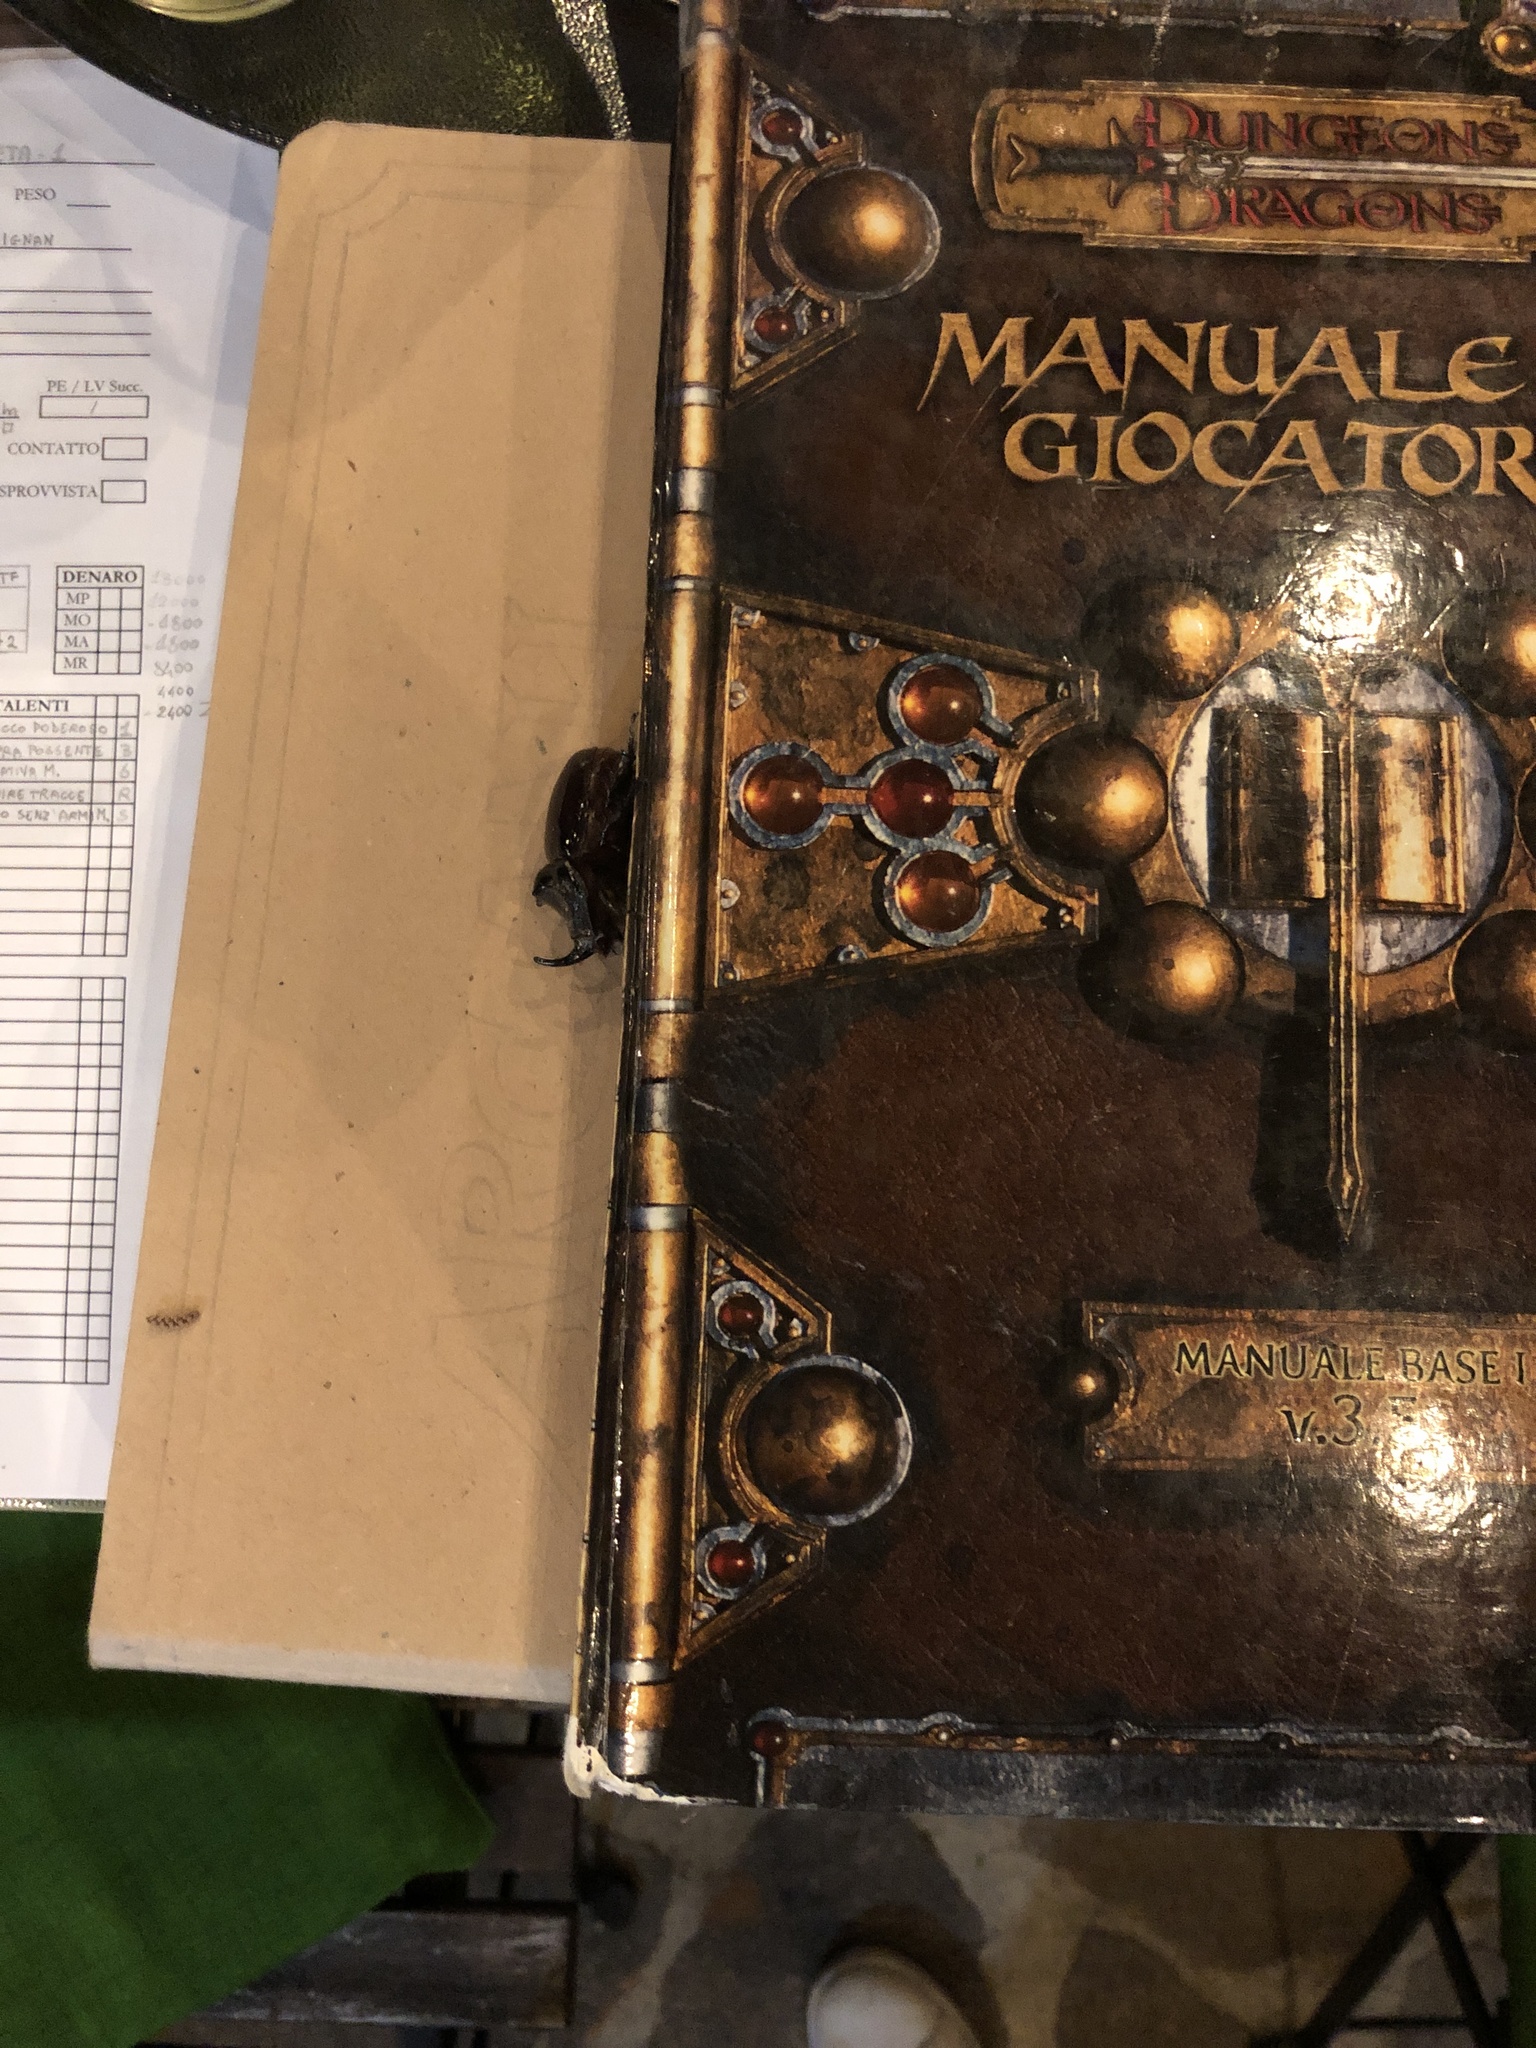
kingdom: Animalia
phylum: Arthropoda
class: Insecta
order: Coleoptera
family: Scarabaeidae
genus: Oryctes
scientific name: Oryctes nasicornis
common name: European rhinoceros beetle
